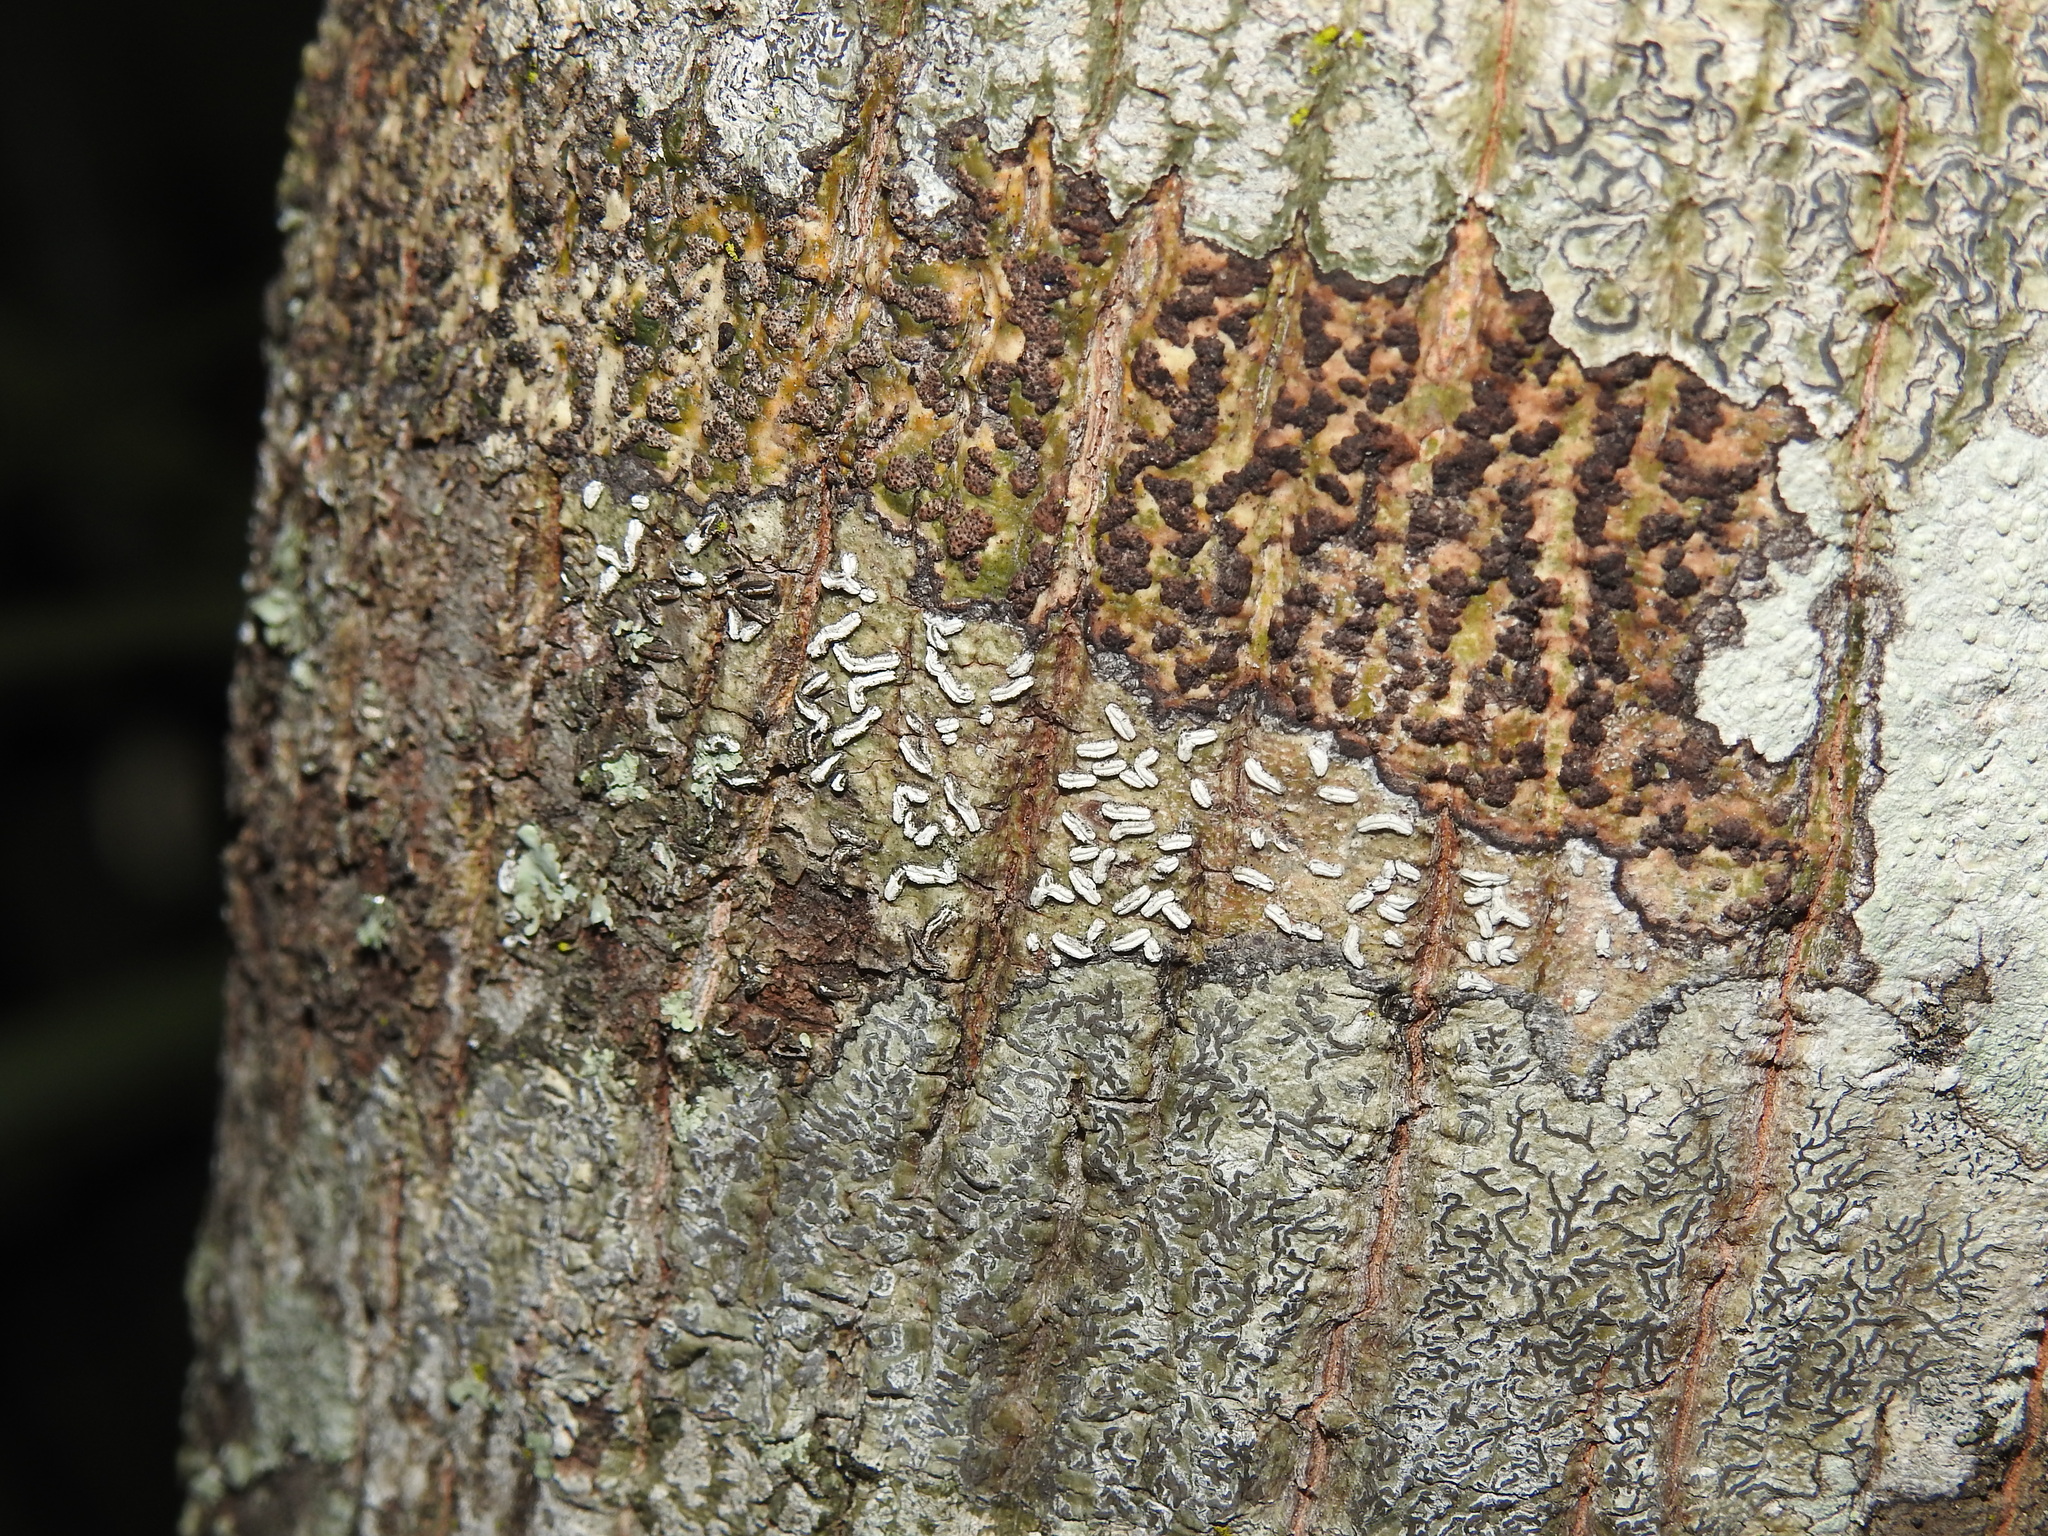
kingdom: Fungi
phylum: Ascomycota
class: Lecanoromycetes
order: Ostropales
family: Graphidaceae
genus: Dyplolabia
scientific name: Dyplolabia afzelii
